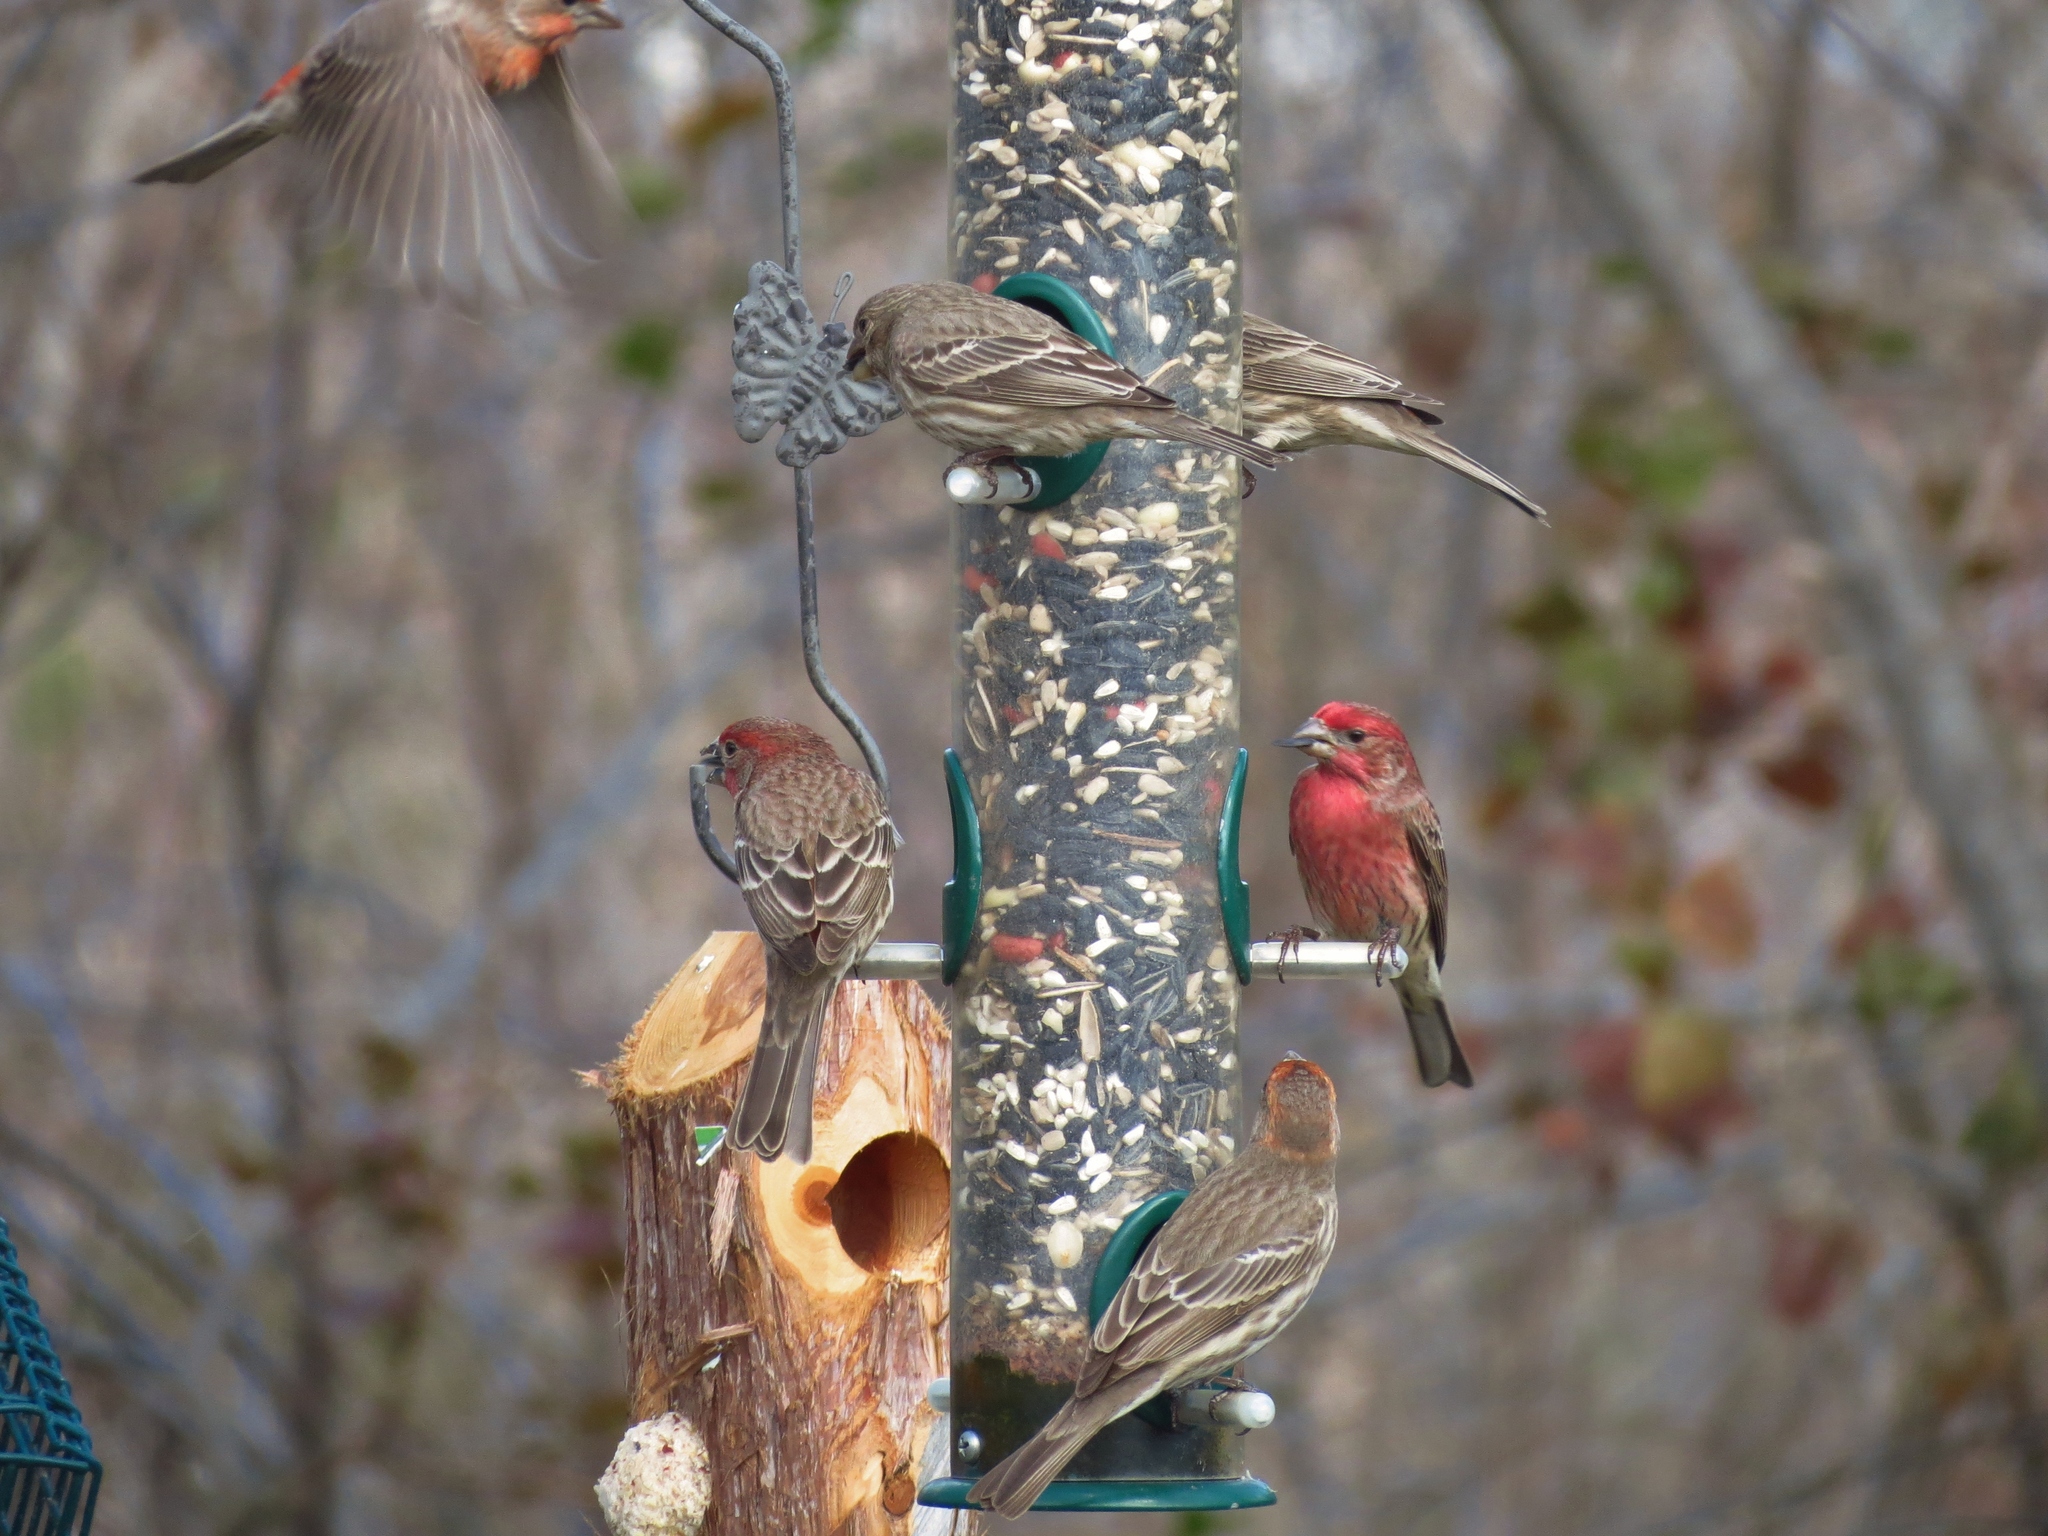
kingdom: Animalia
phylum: Chordata
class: Aves
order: Passeriformes
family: Fringillidae
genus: Haemorhous
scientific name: Haemorhous mexicanus
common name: House finch
